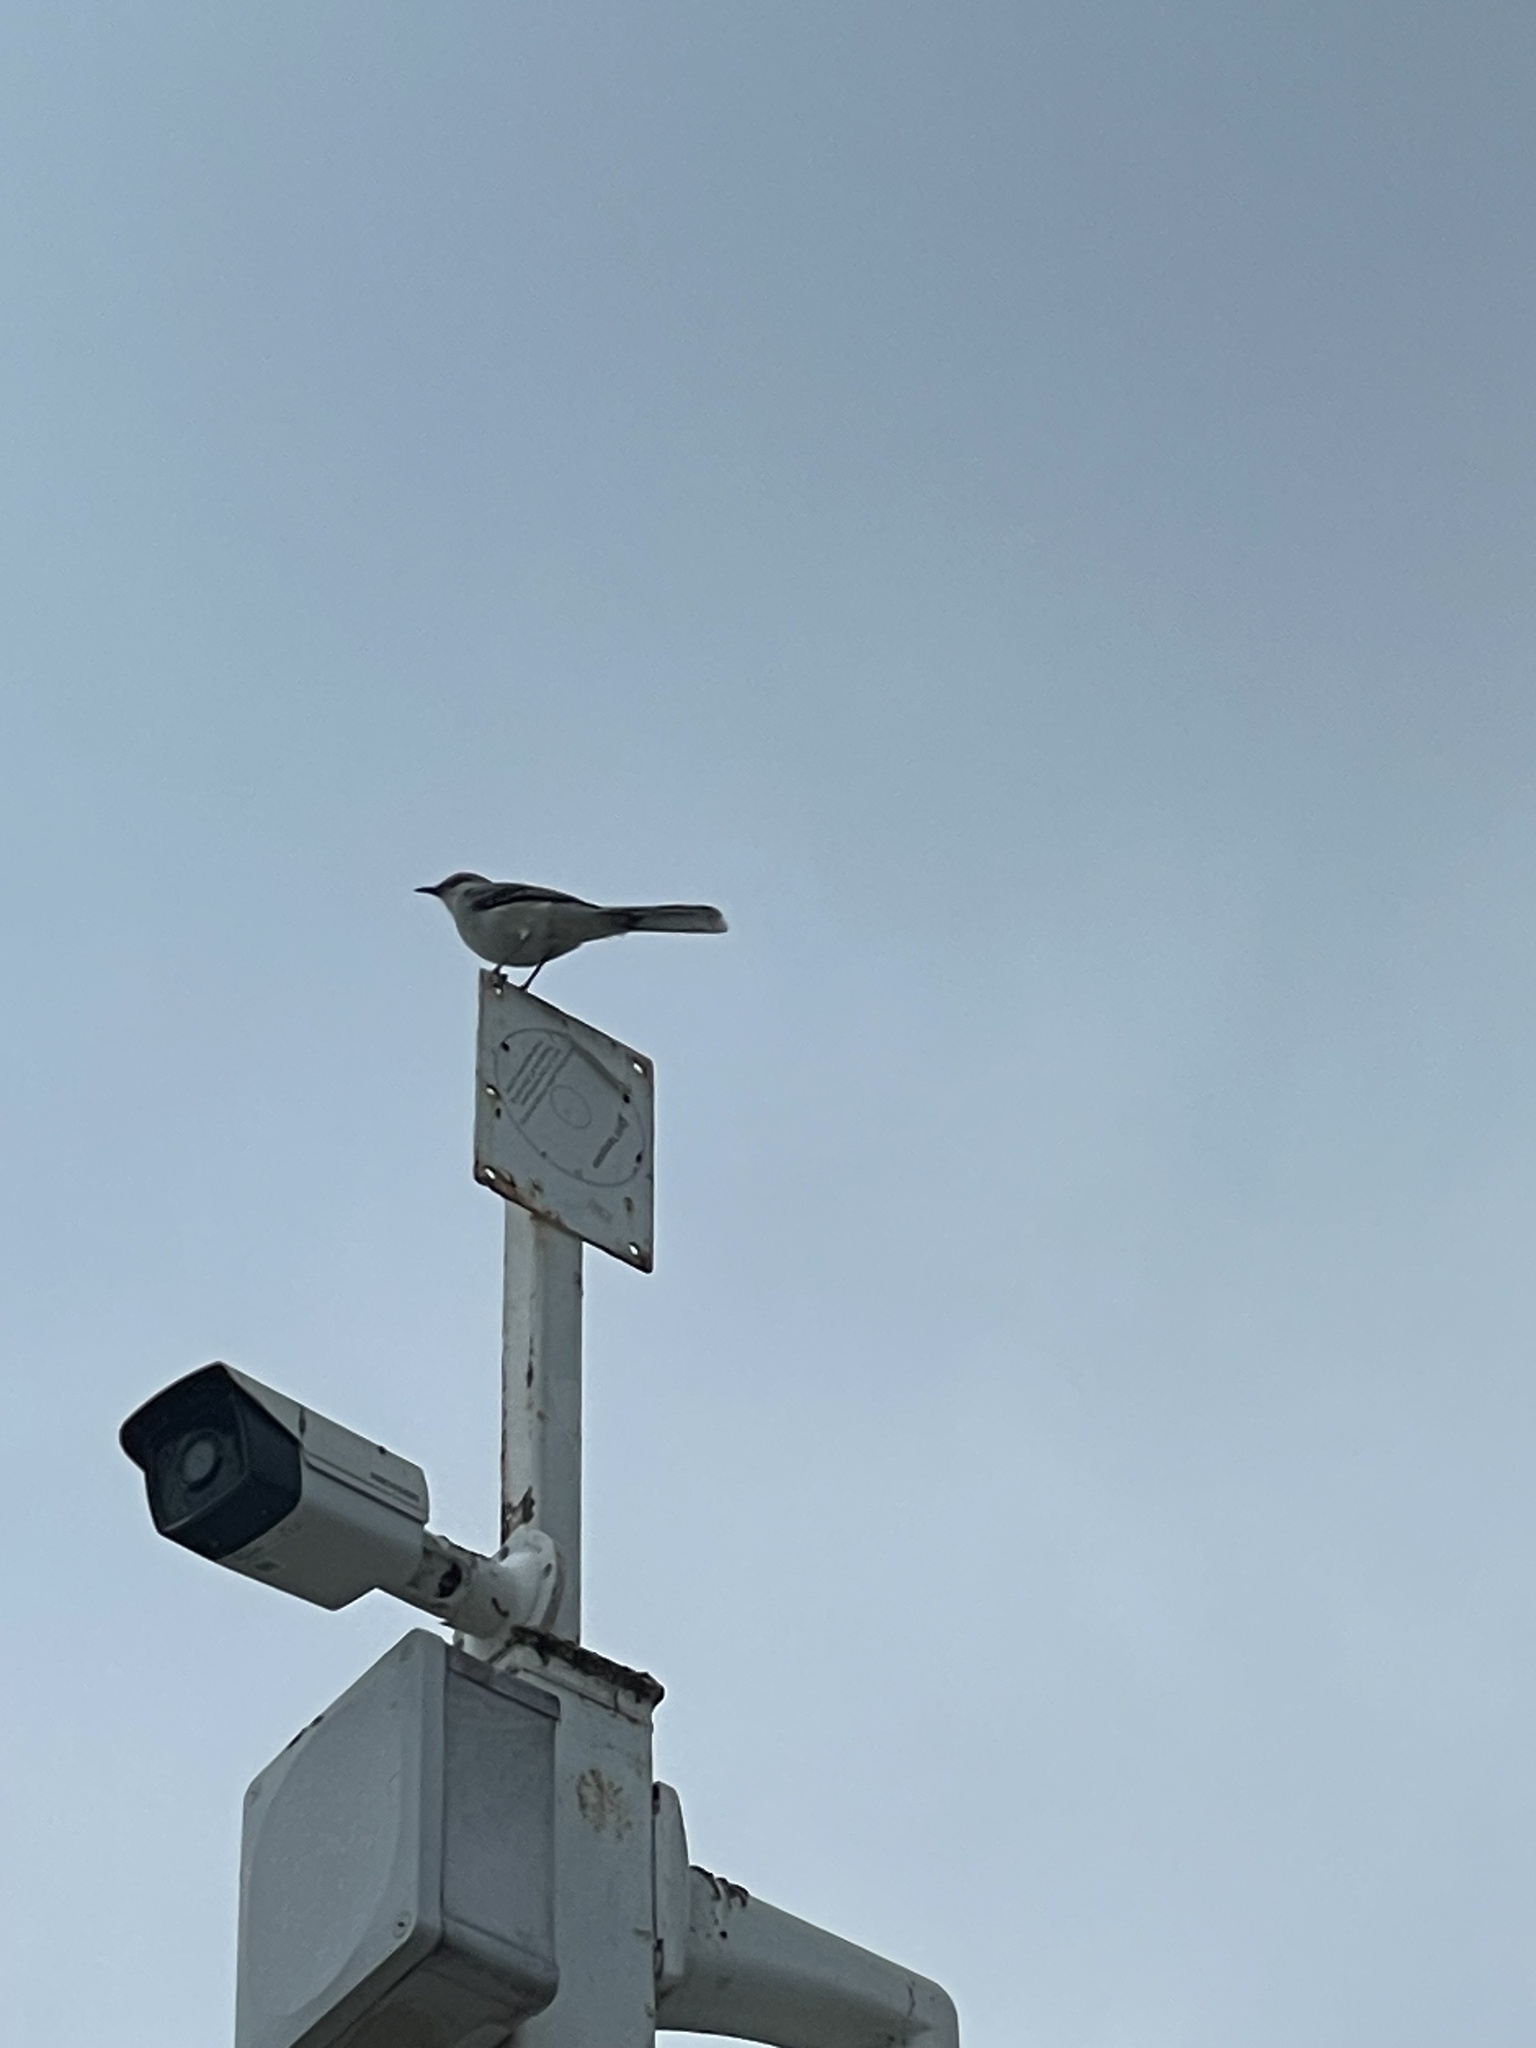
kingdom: Animalia
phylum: Chordata
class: Aves
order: Passeriformes
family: Mimidae
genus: Mimus
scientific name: Mimus gilvus
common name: Tropical mockingbird
